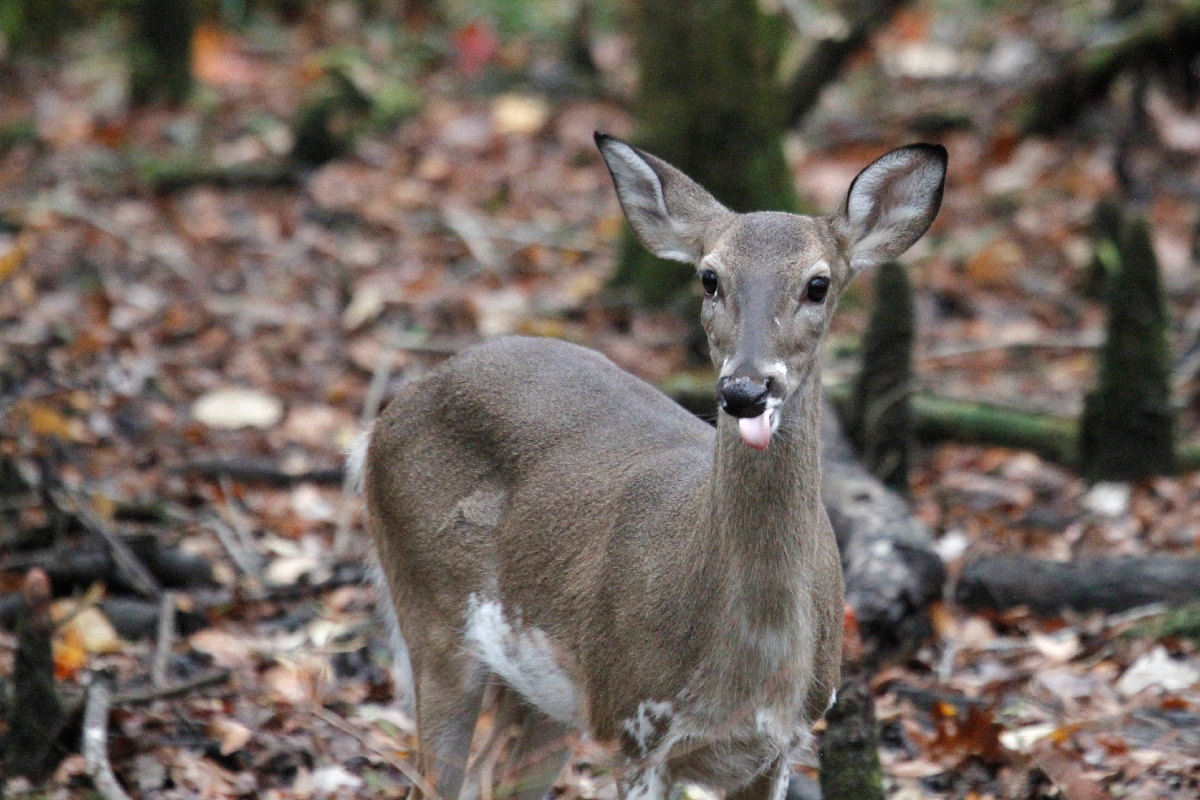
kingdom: Animalia
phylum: Chordata
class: Mammalia
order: Artiodactyla
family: Cervidae
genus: Odocoileus
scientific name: Odocoileus virginianus
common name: White-tailed deer
